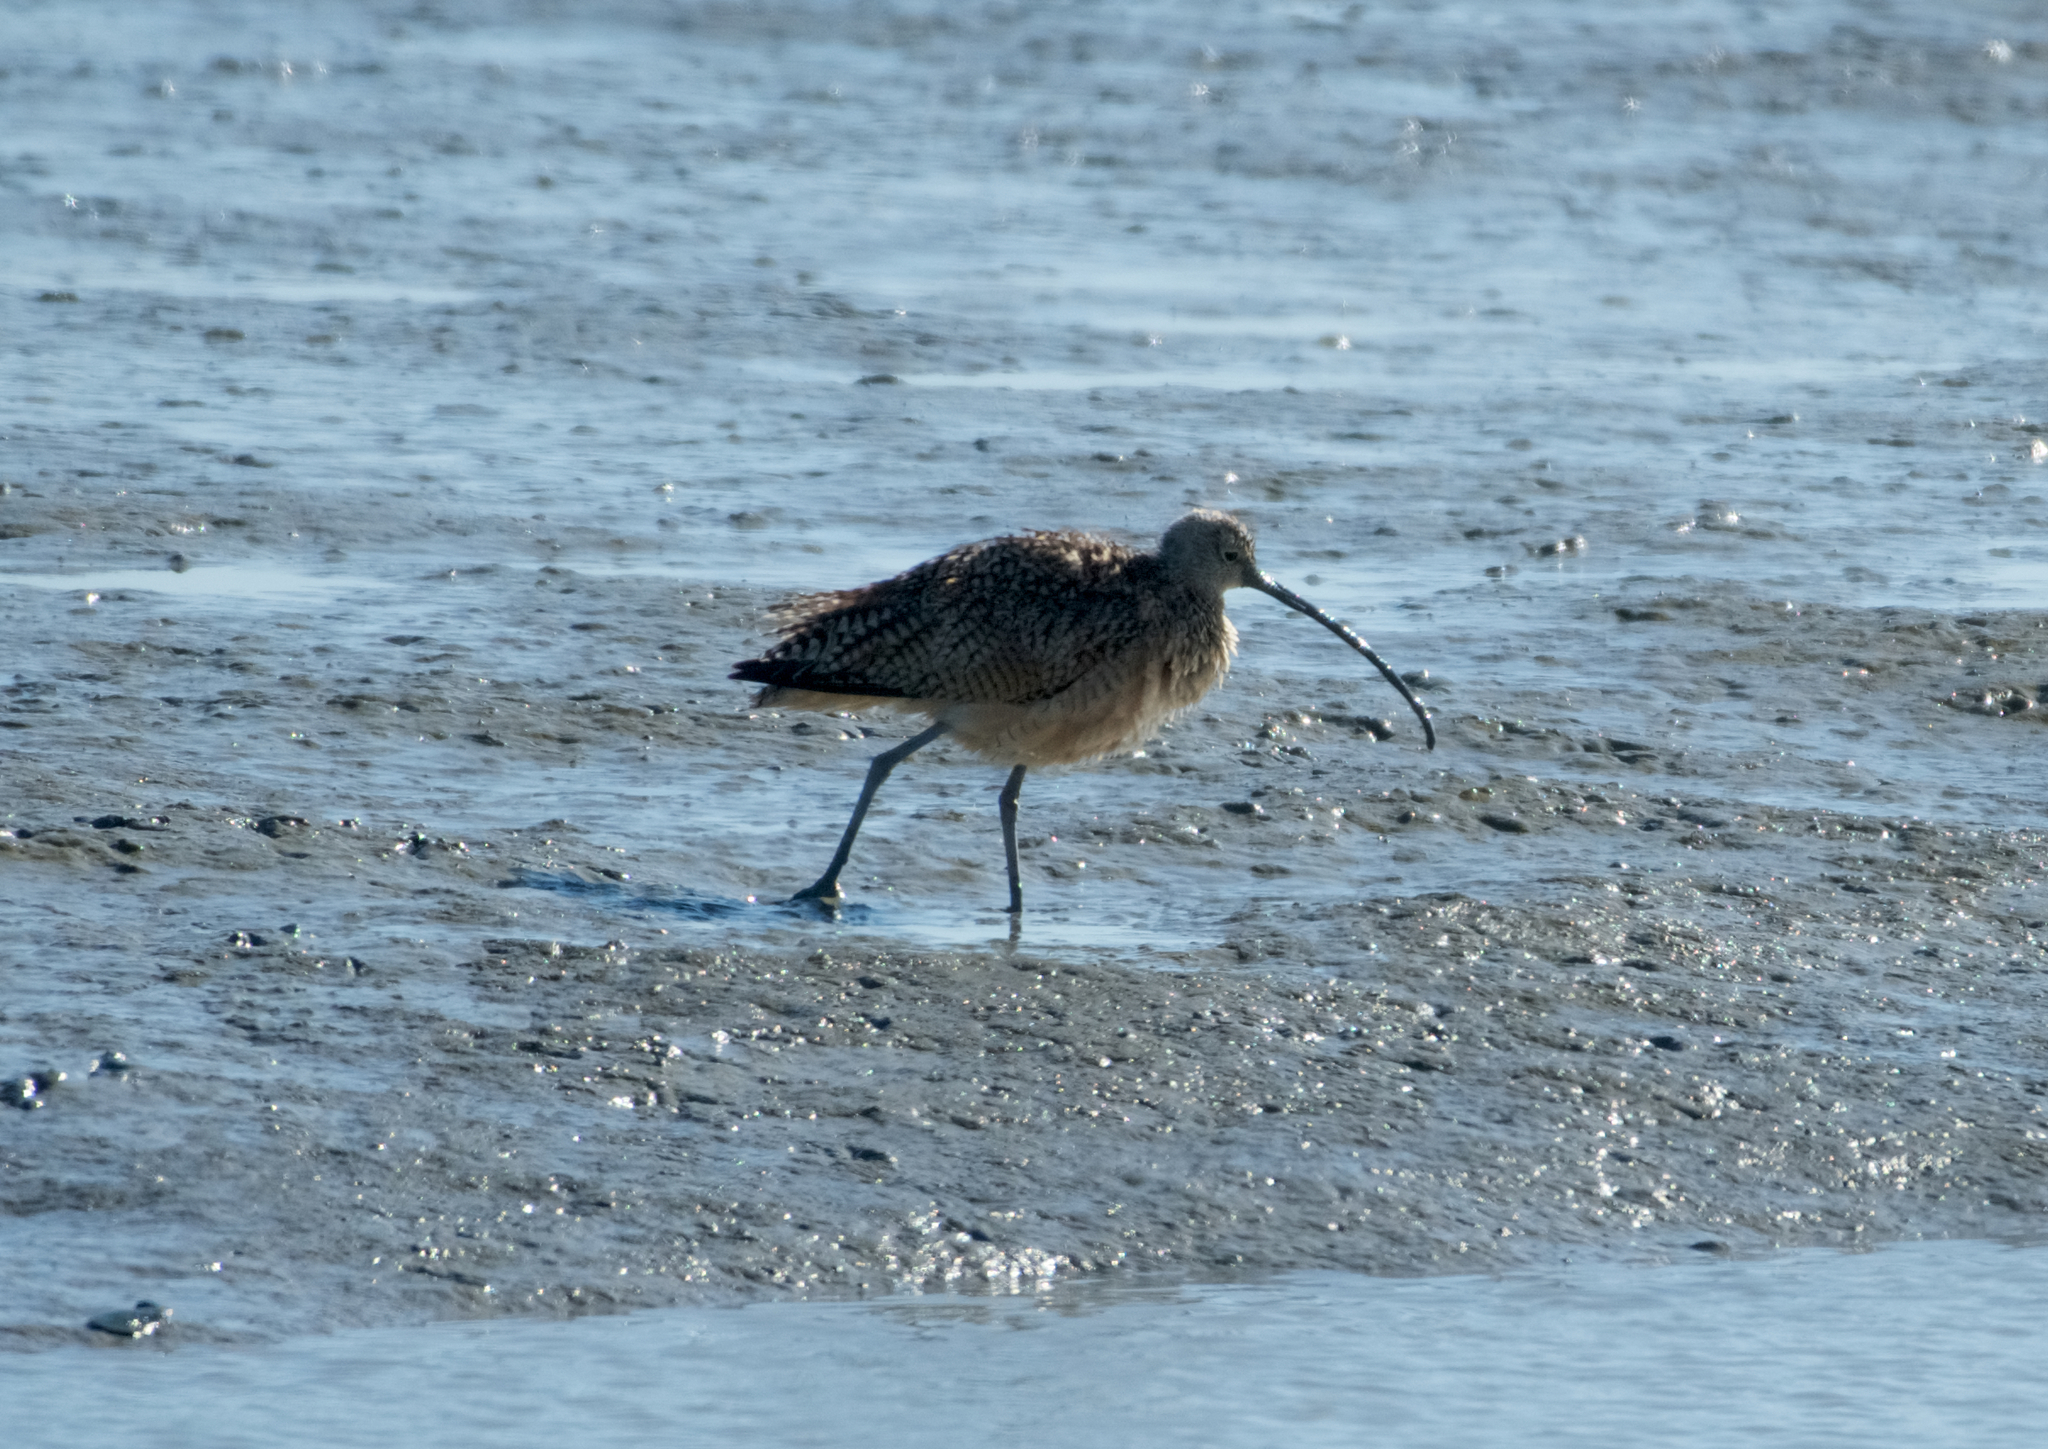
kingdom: Animalia
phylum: Chordata
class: Aves
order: Charadriiformes
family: Scolopacidae
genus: Numenius
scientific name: Numenius americanus
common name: Long-billed curlew
